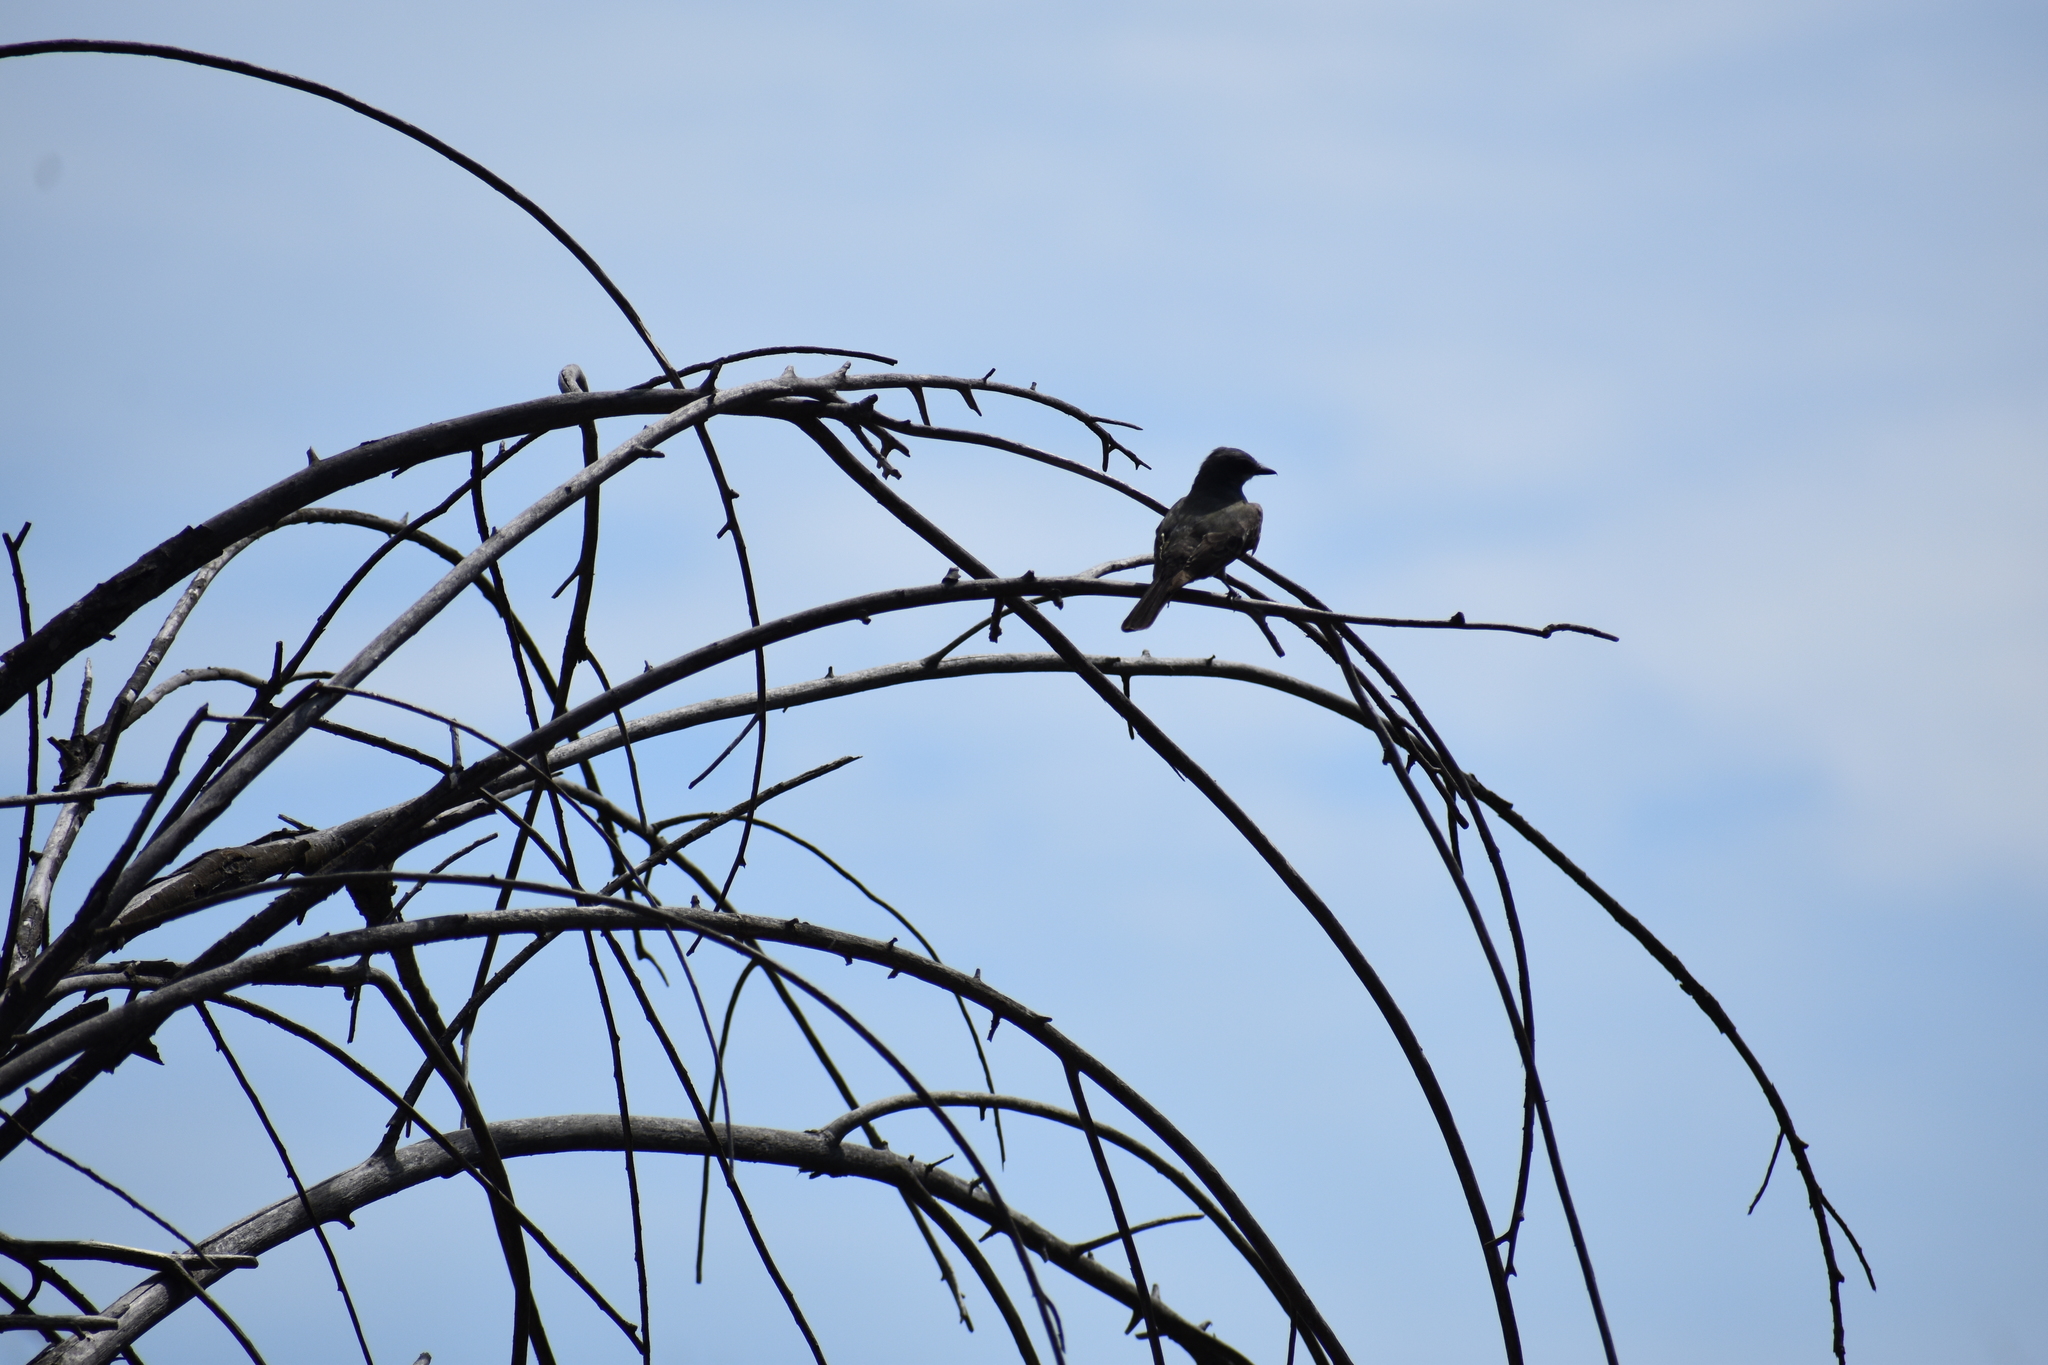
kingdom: Animalia
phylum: Chordata
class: Aves
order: Passeriformes
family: Tyrannidae
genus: Sayornis
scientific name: Sayornis nigricans
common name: Black phoebe
